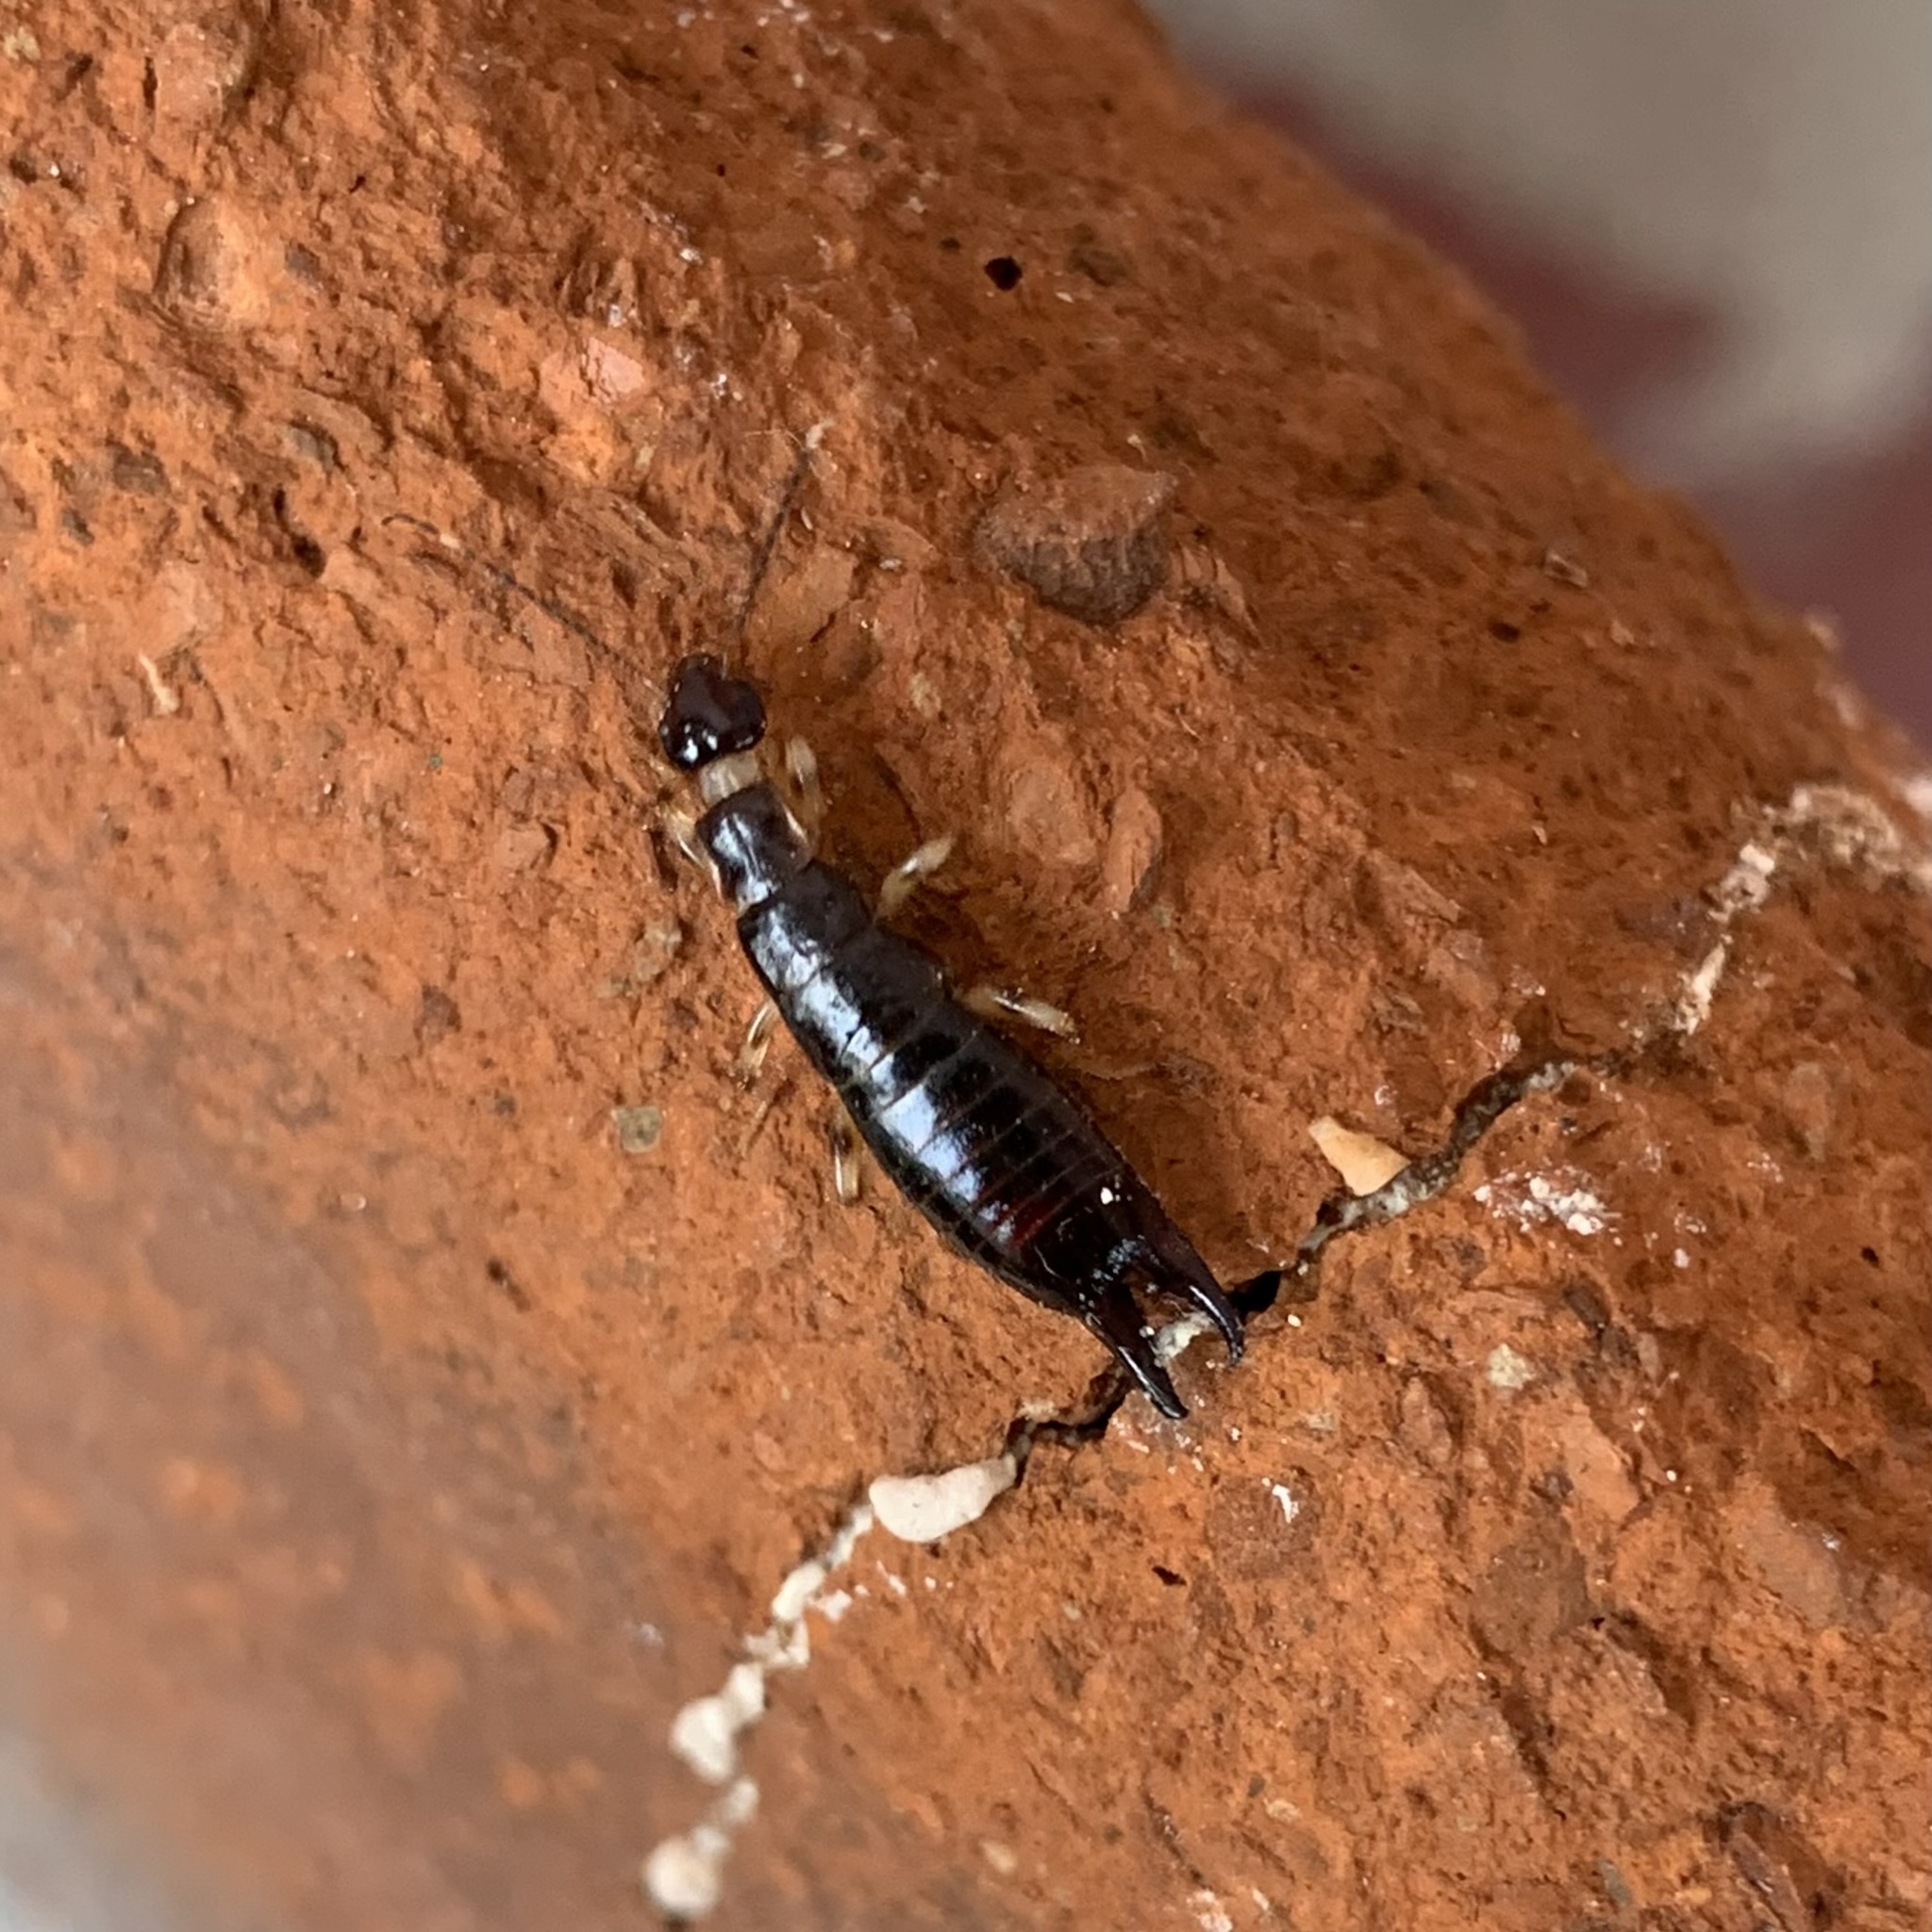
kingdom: Animalia
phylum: Arthropoda
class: Insecta
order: Dermaptera
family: Anisolabididae
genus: Euborellia
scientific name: Euborellia annulipes
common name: Ringlegged earwig
